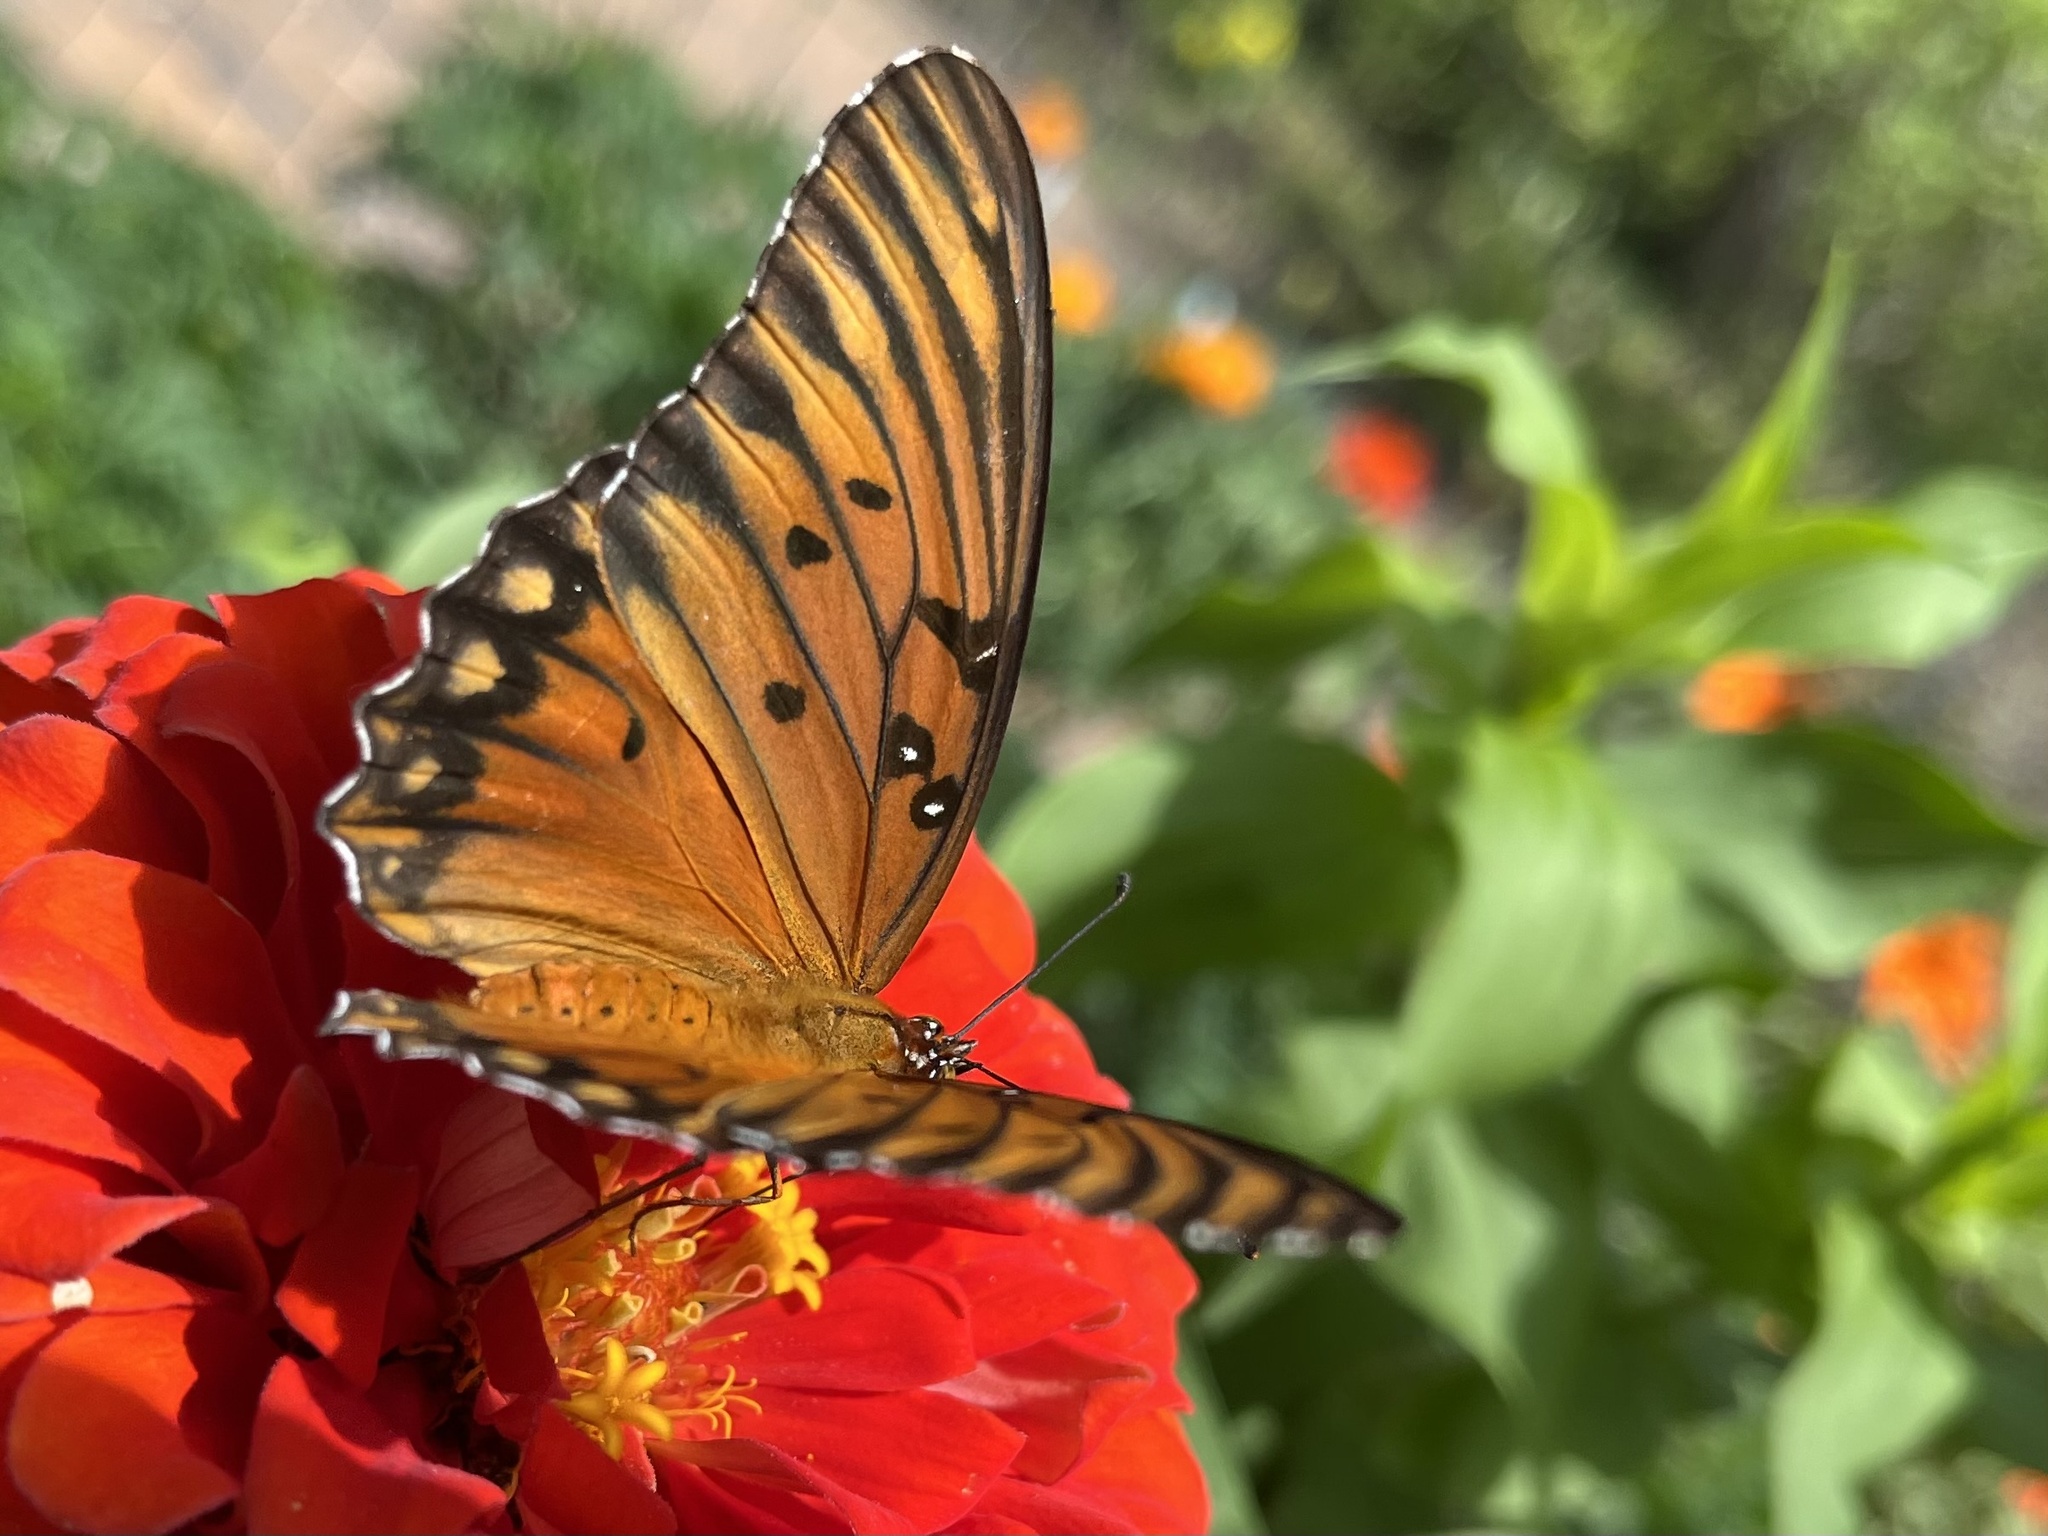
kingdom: Animalia
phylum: Arthropoda
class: Insecta
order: Lepidoptera
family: Nymphalidae
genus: Dione
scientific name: Dione vanillae
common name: Gulf fritillary
